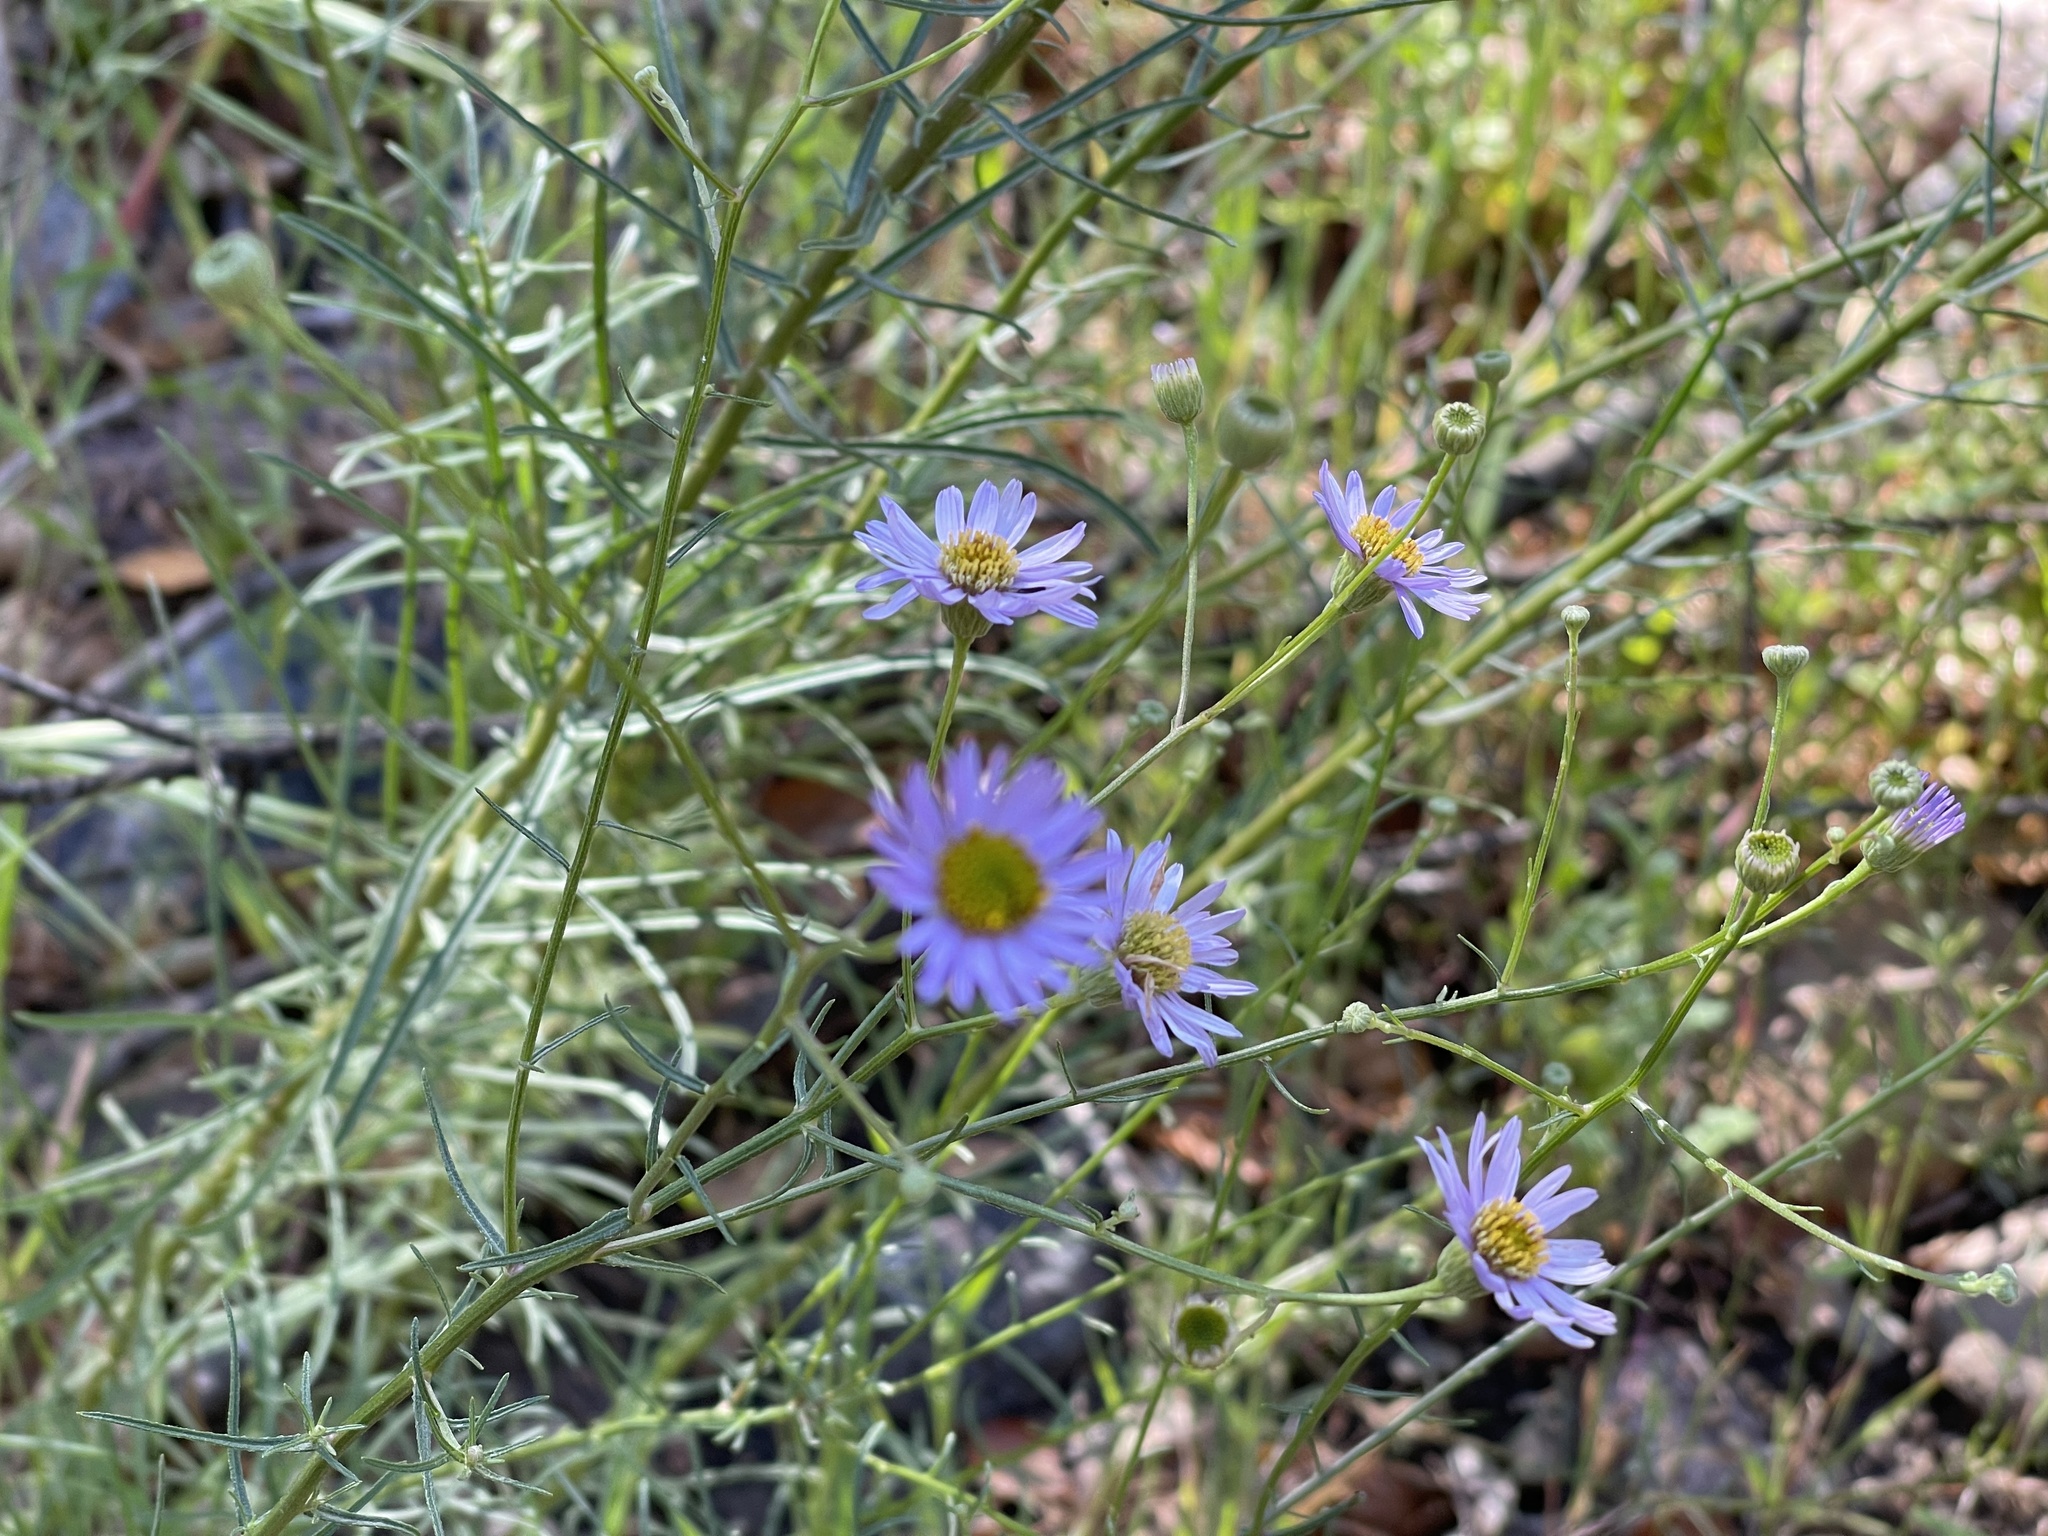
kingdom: Plantae
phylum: Tracheophyta
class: Magnoliopsida
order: Asterales
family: Asteraceae
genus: Erigeron
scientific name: Erigeron foliosus
